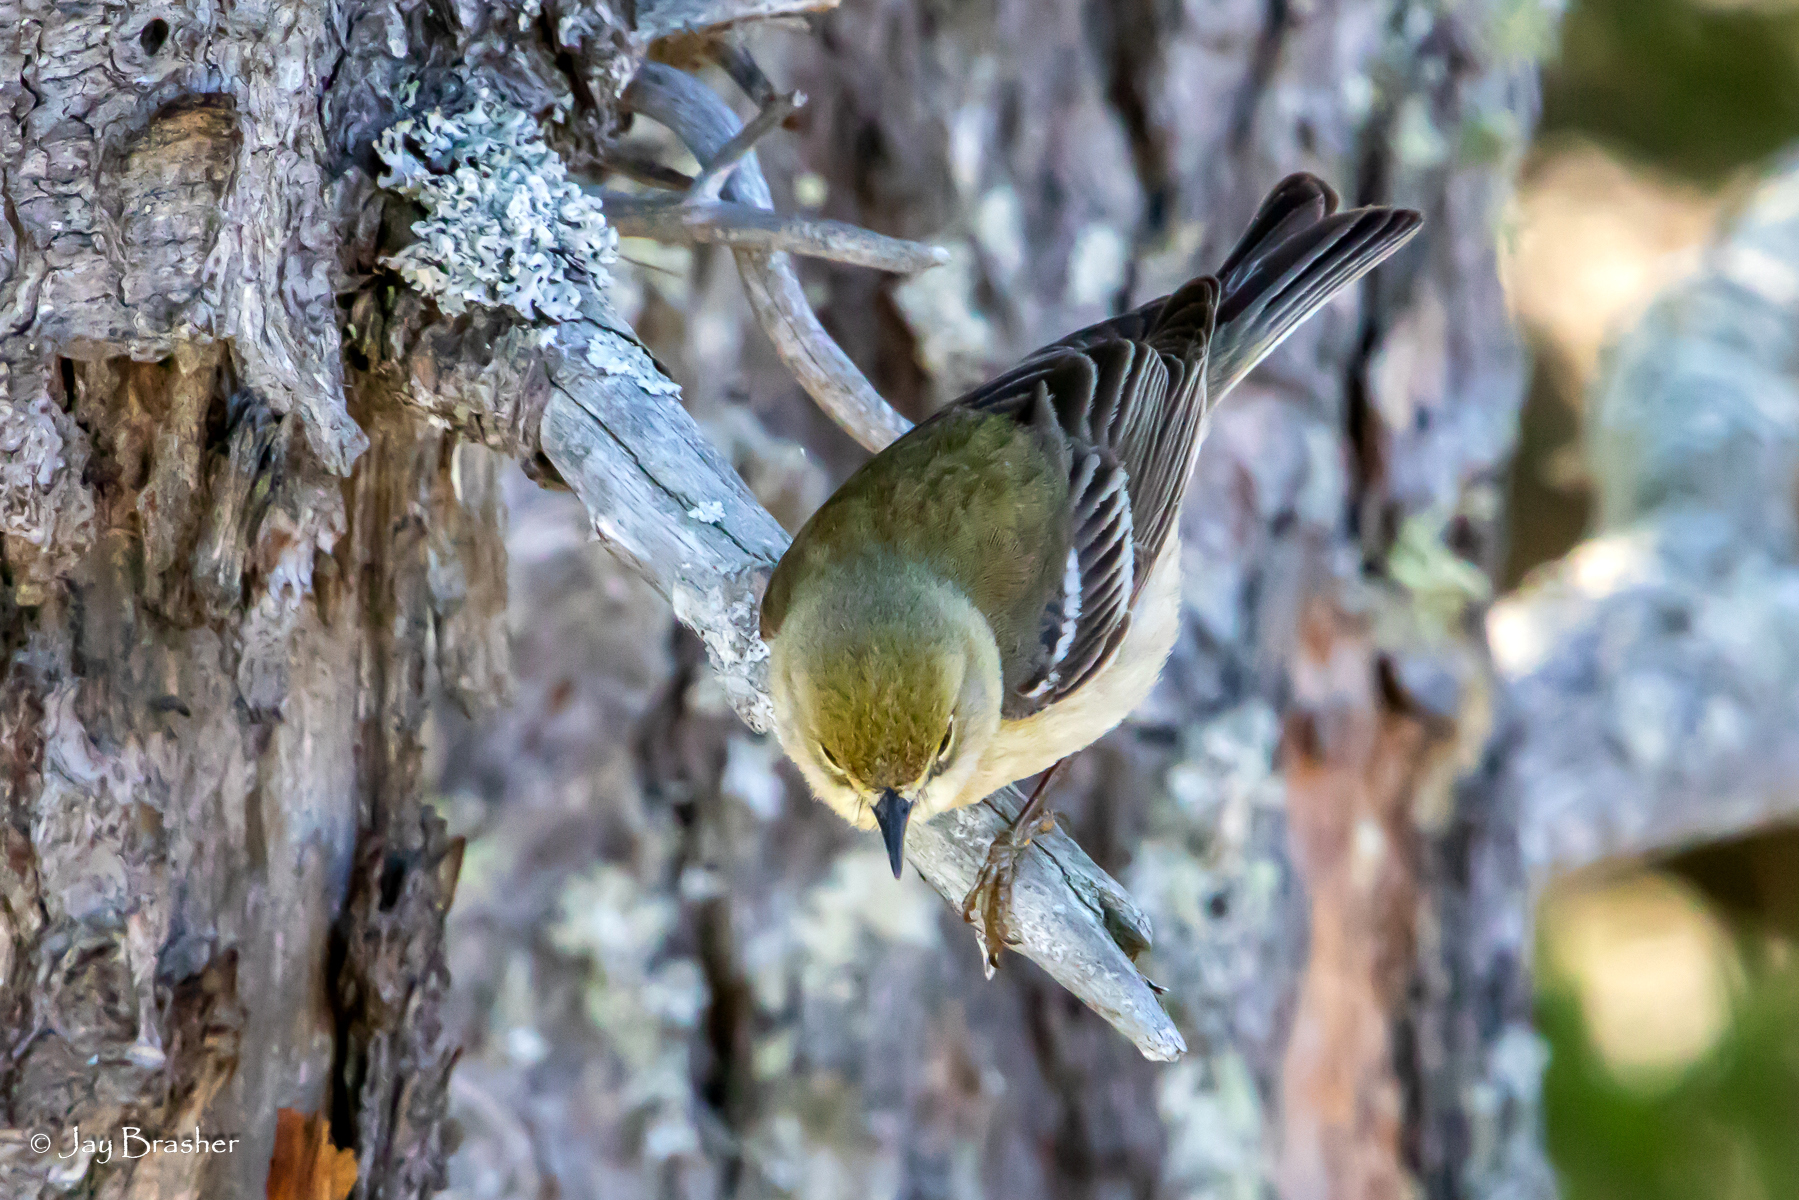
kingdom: Animalia
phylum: Chordata
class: Aves
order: Passeriformes
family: Parulidae
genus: Setophaga
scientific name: Setophaga pinus
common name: Pine warbler
